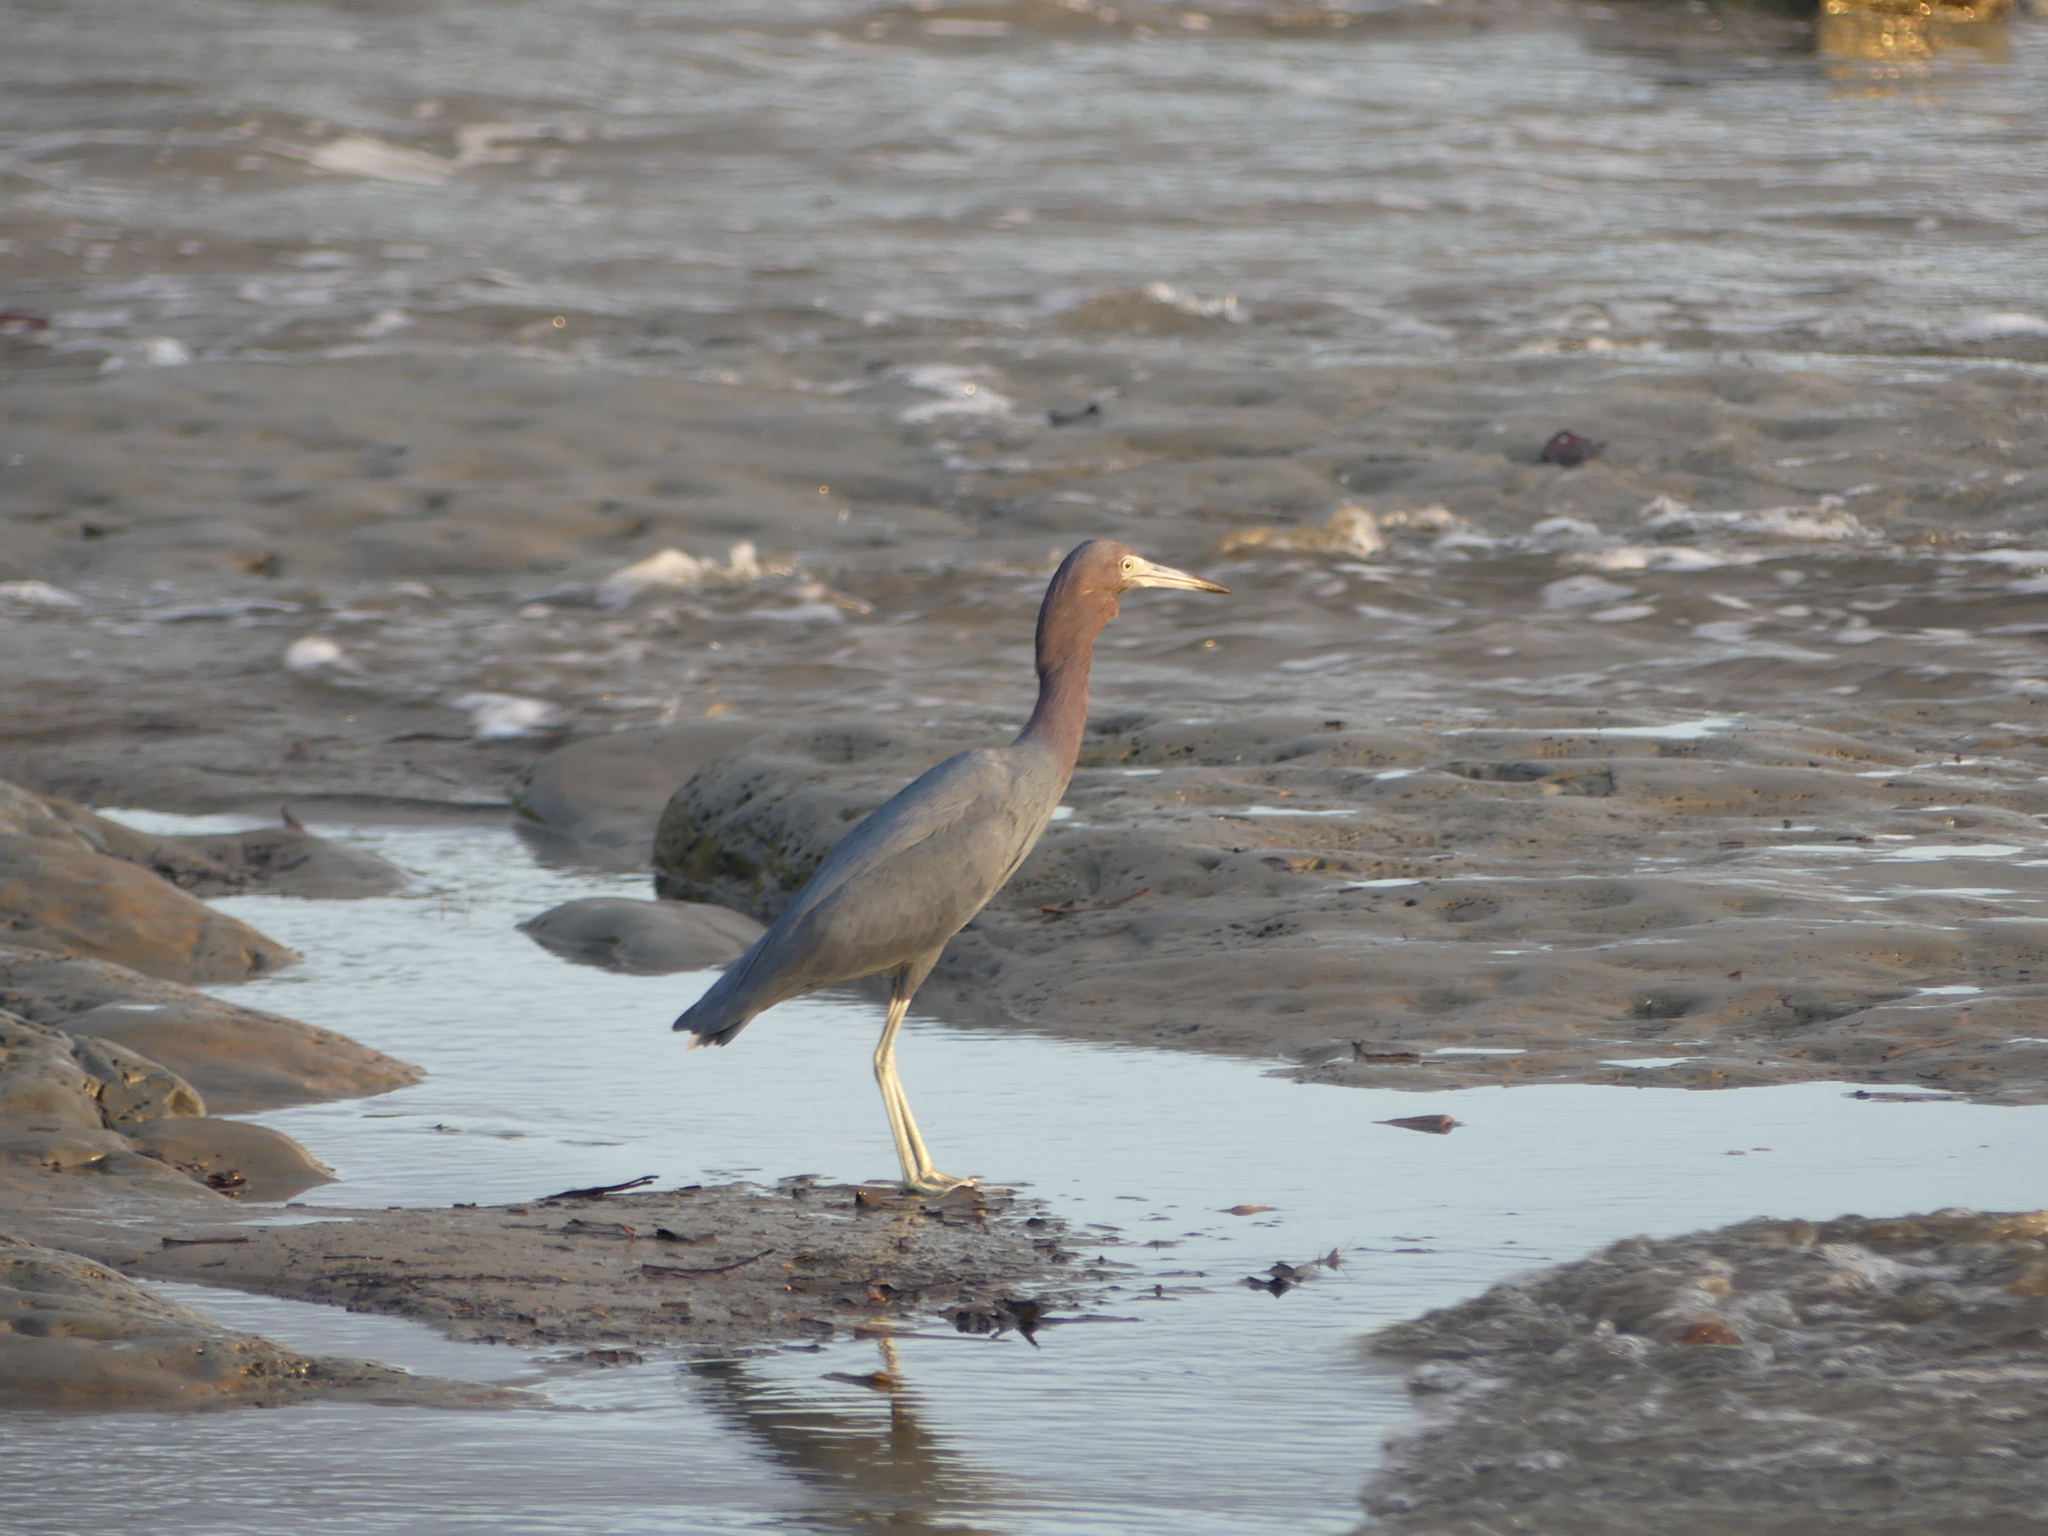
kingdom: Animalia
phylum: Chordata
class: Aves
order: Pelecaniformes
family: Ardeidae
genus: Egretta
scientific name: Egretta caerulea
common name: Little blue heron
